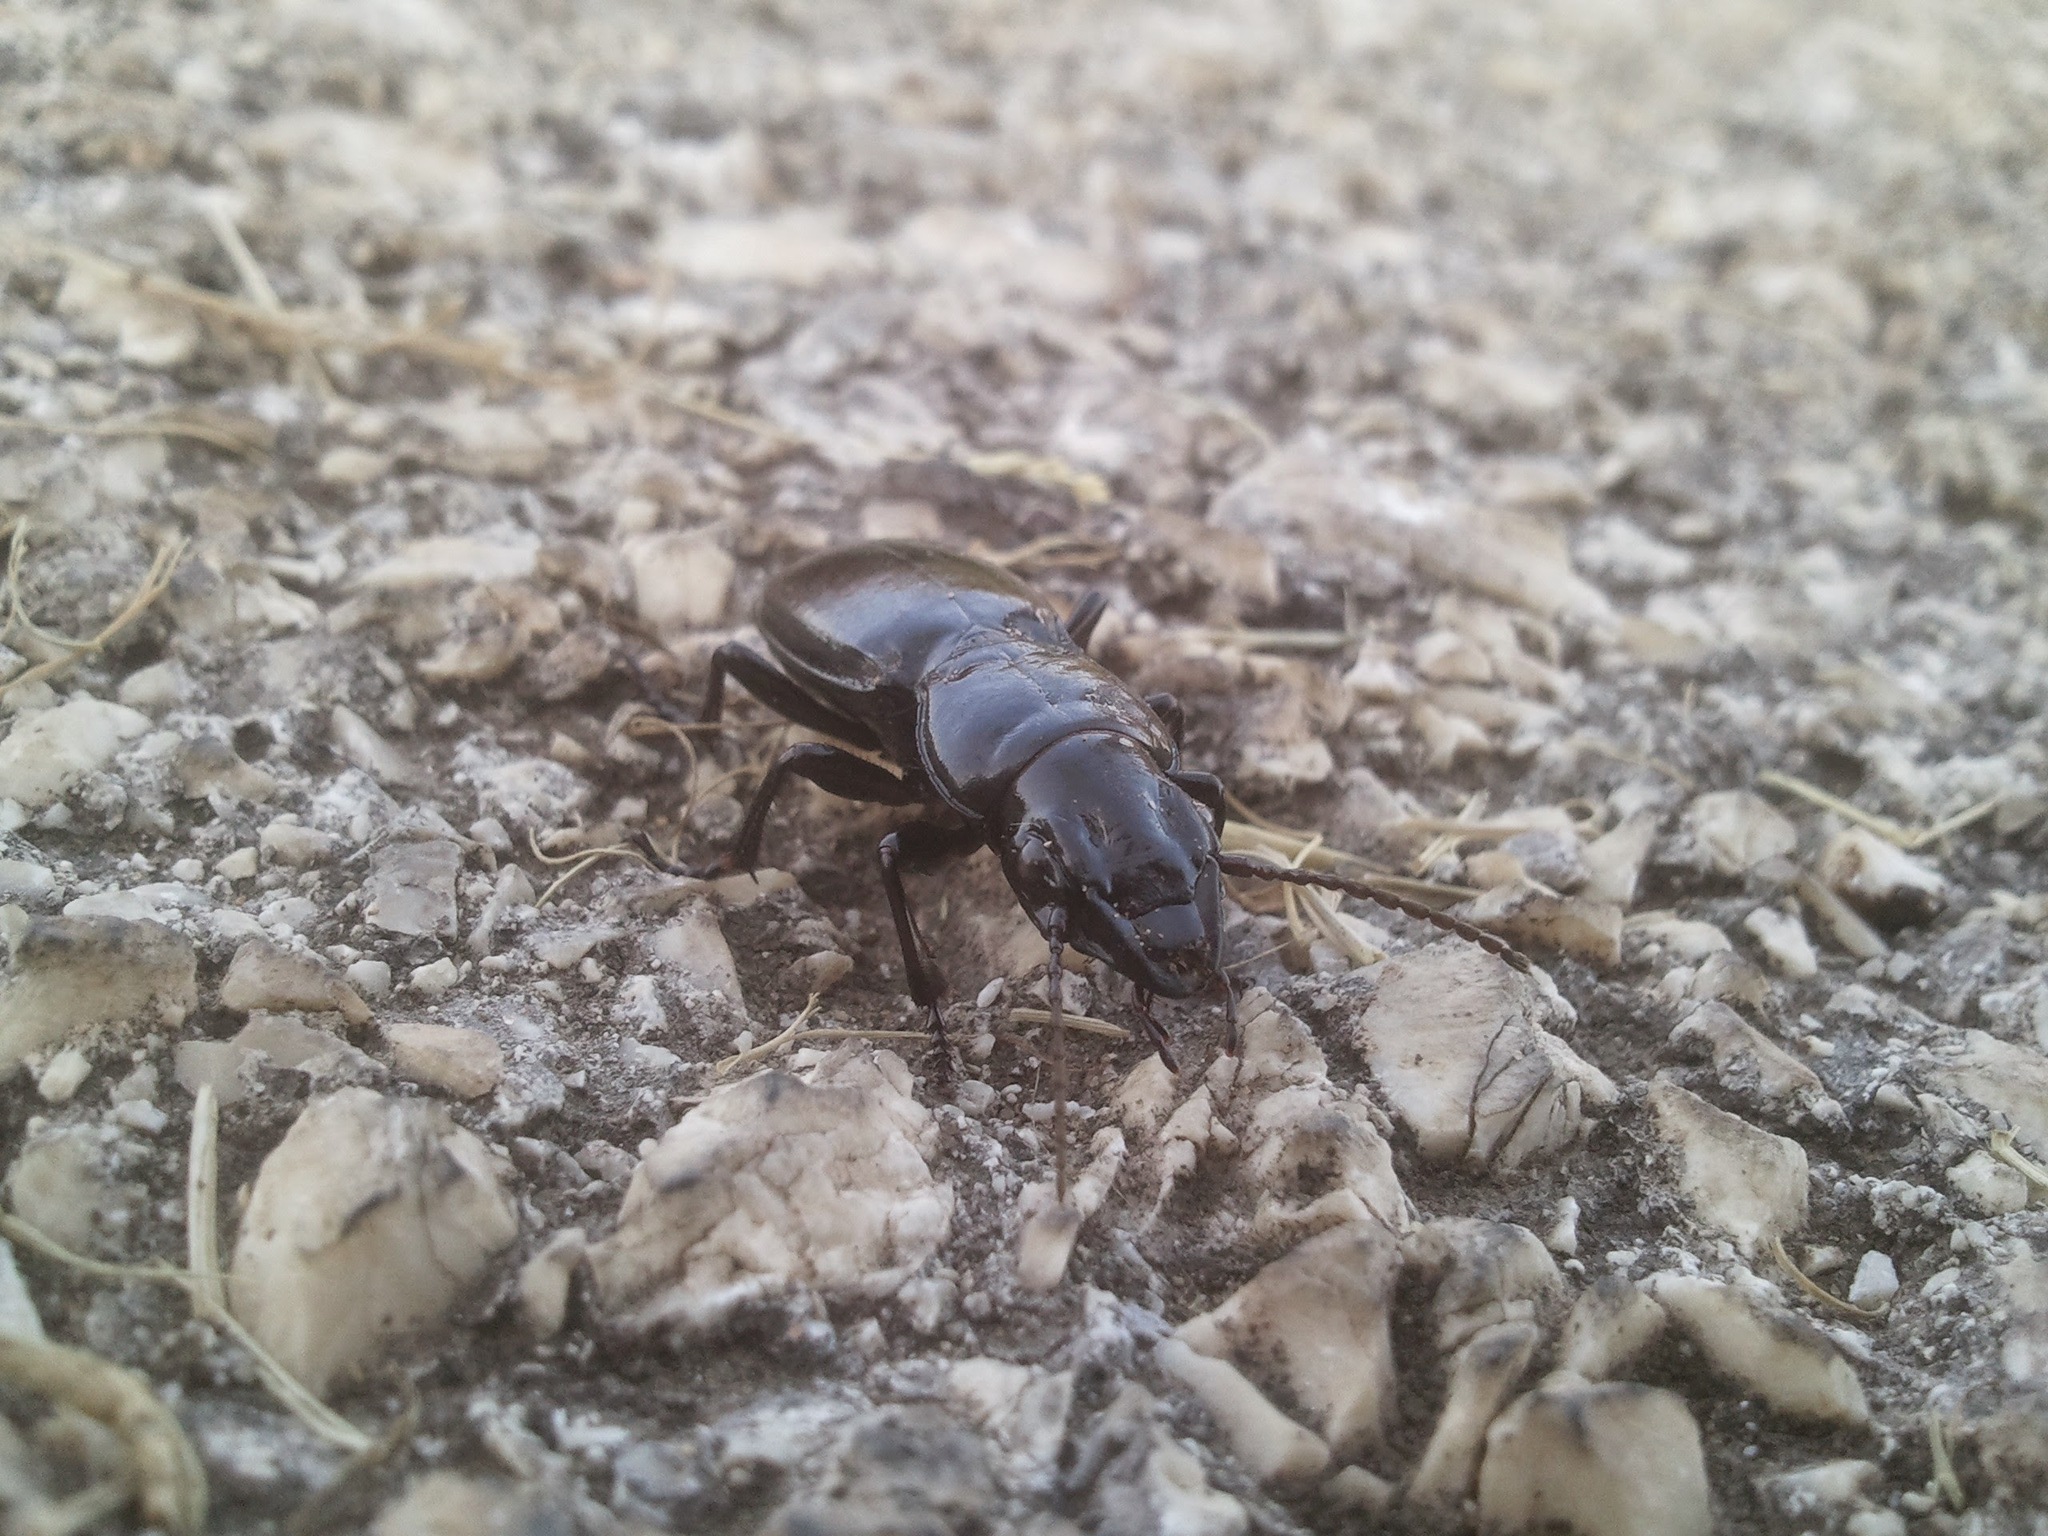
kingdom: Animalia
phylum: Arthropoda
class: Insecta
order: Coleoptera
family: Carabidae
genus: Percus
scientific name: Percus corrugatus
